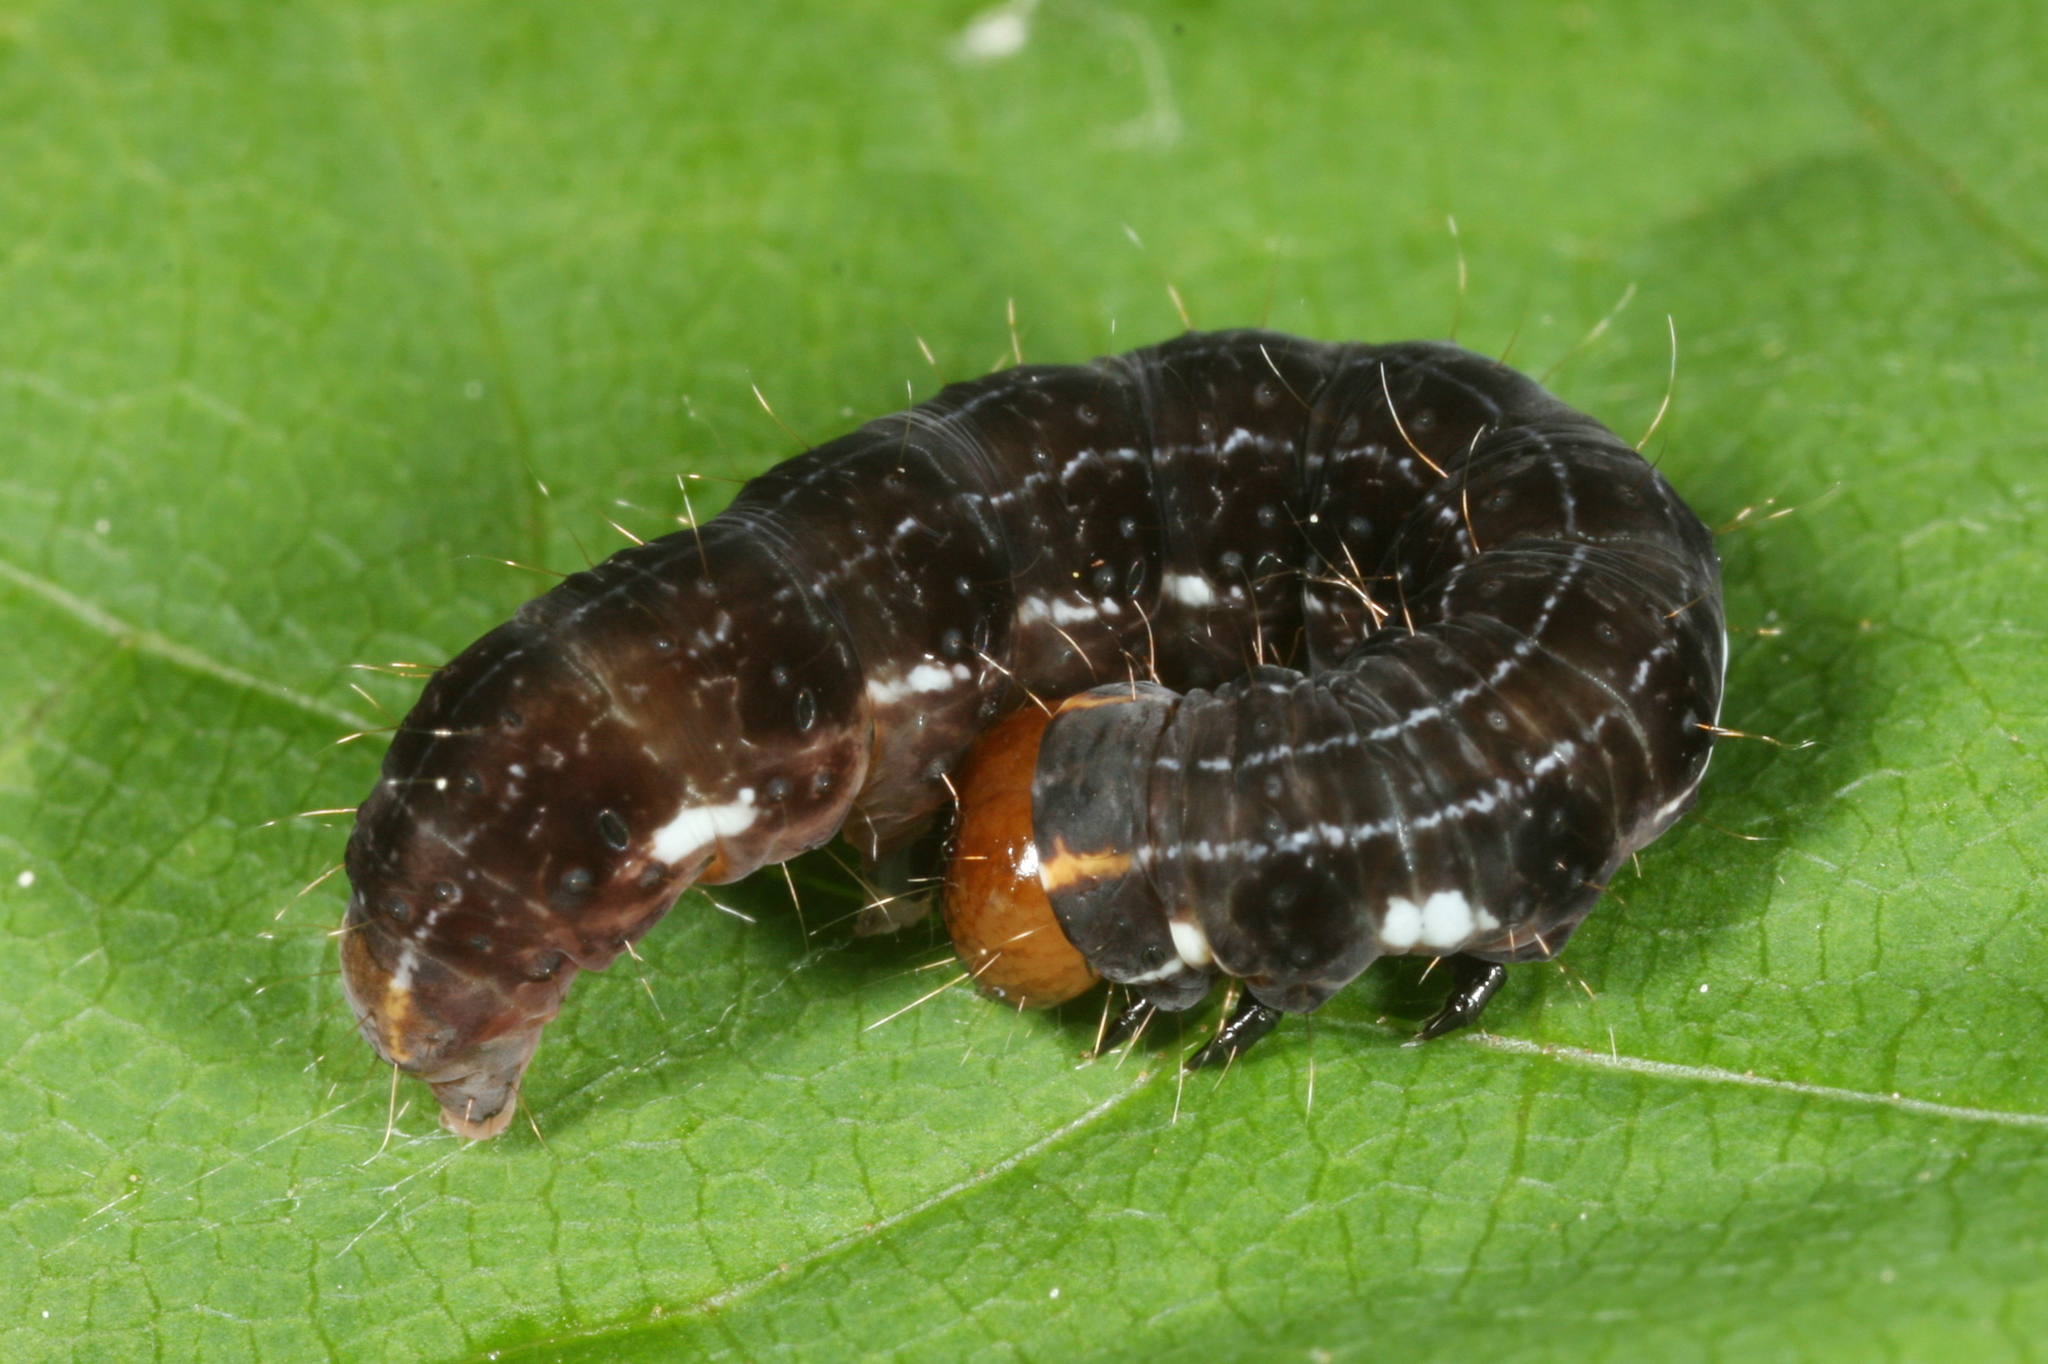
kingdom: Animalia
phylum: Arthropoda
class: Insecta
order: Lepidoptera
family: Noctuidae
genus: Eupsilia
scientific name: Eupsilia transversa
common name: Satellite
